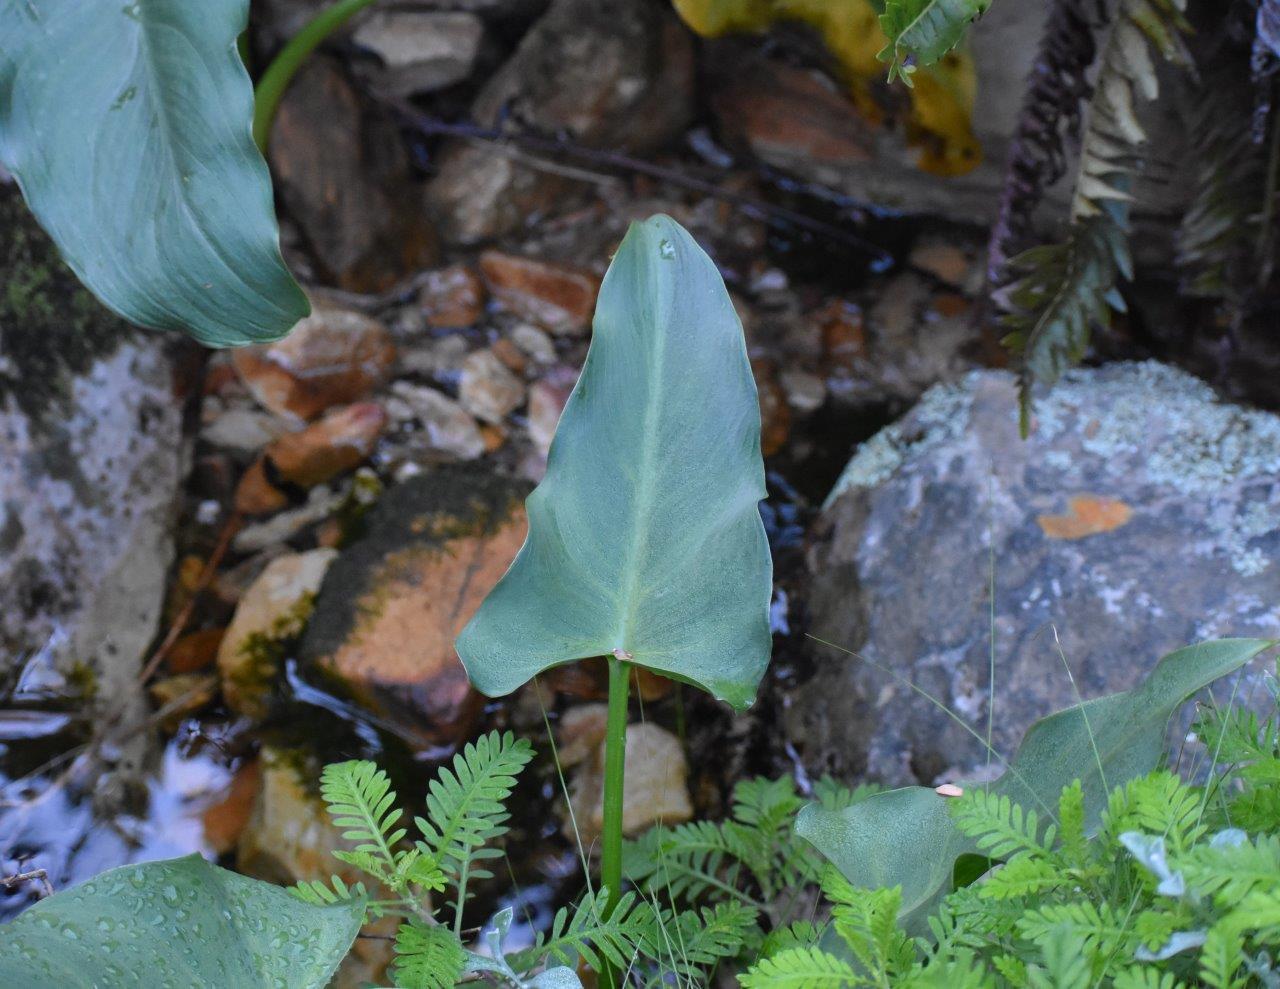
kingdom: Plantae
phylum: Tracheophyta
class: Liliopsida
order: Alismatales
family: Araceae
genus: Zantedeschia
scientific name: Zantedeschia aethiopica
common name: Altar-lily
